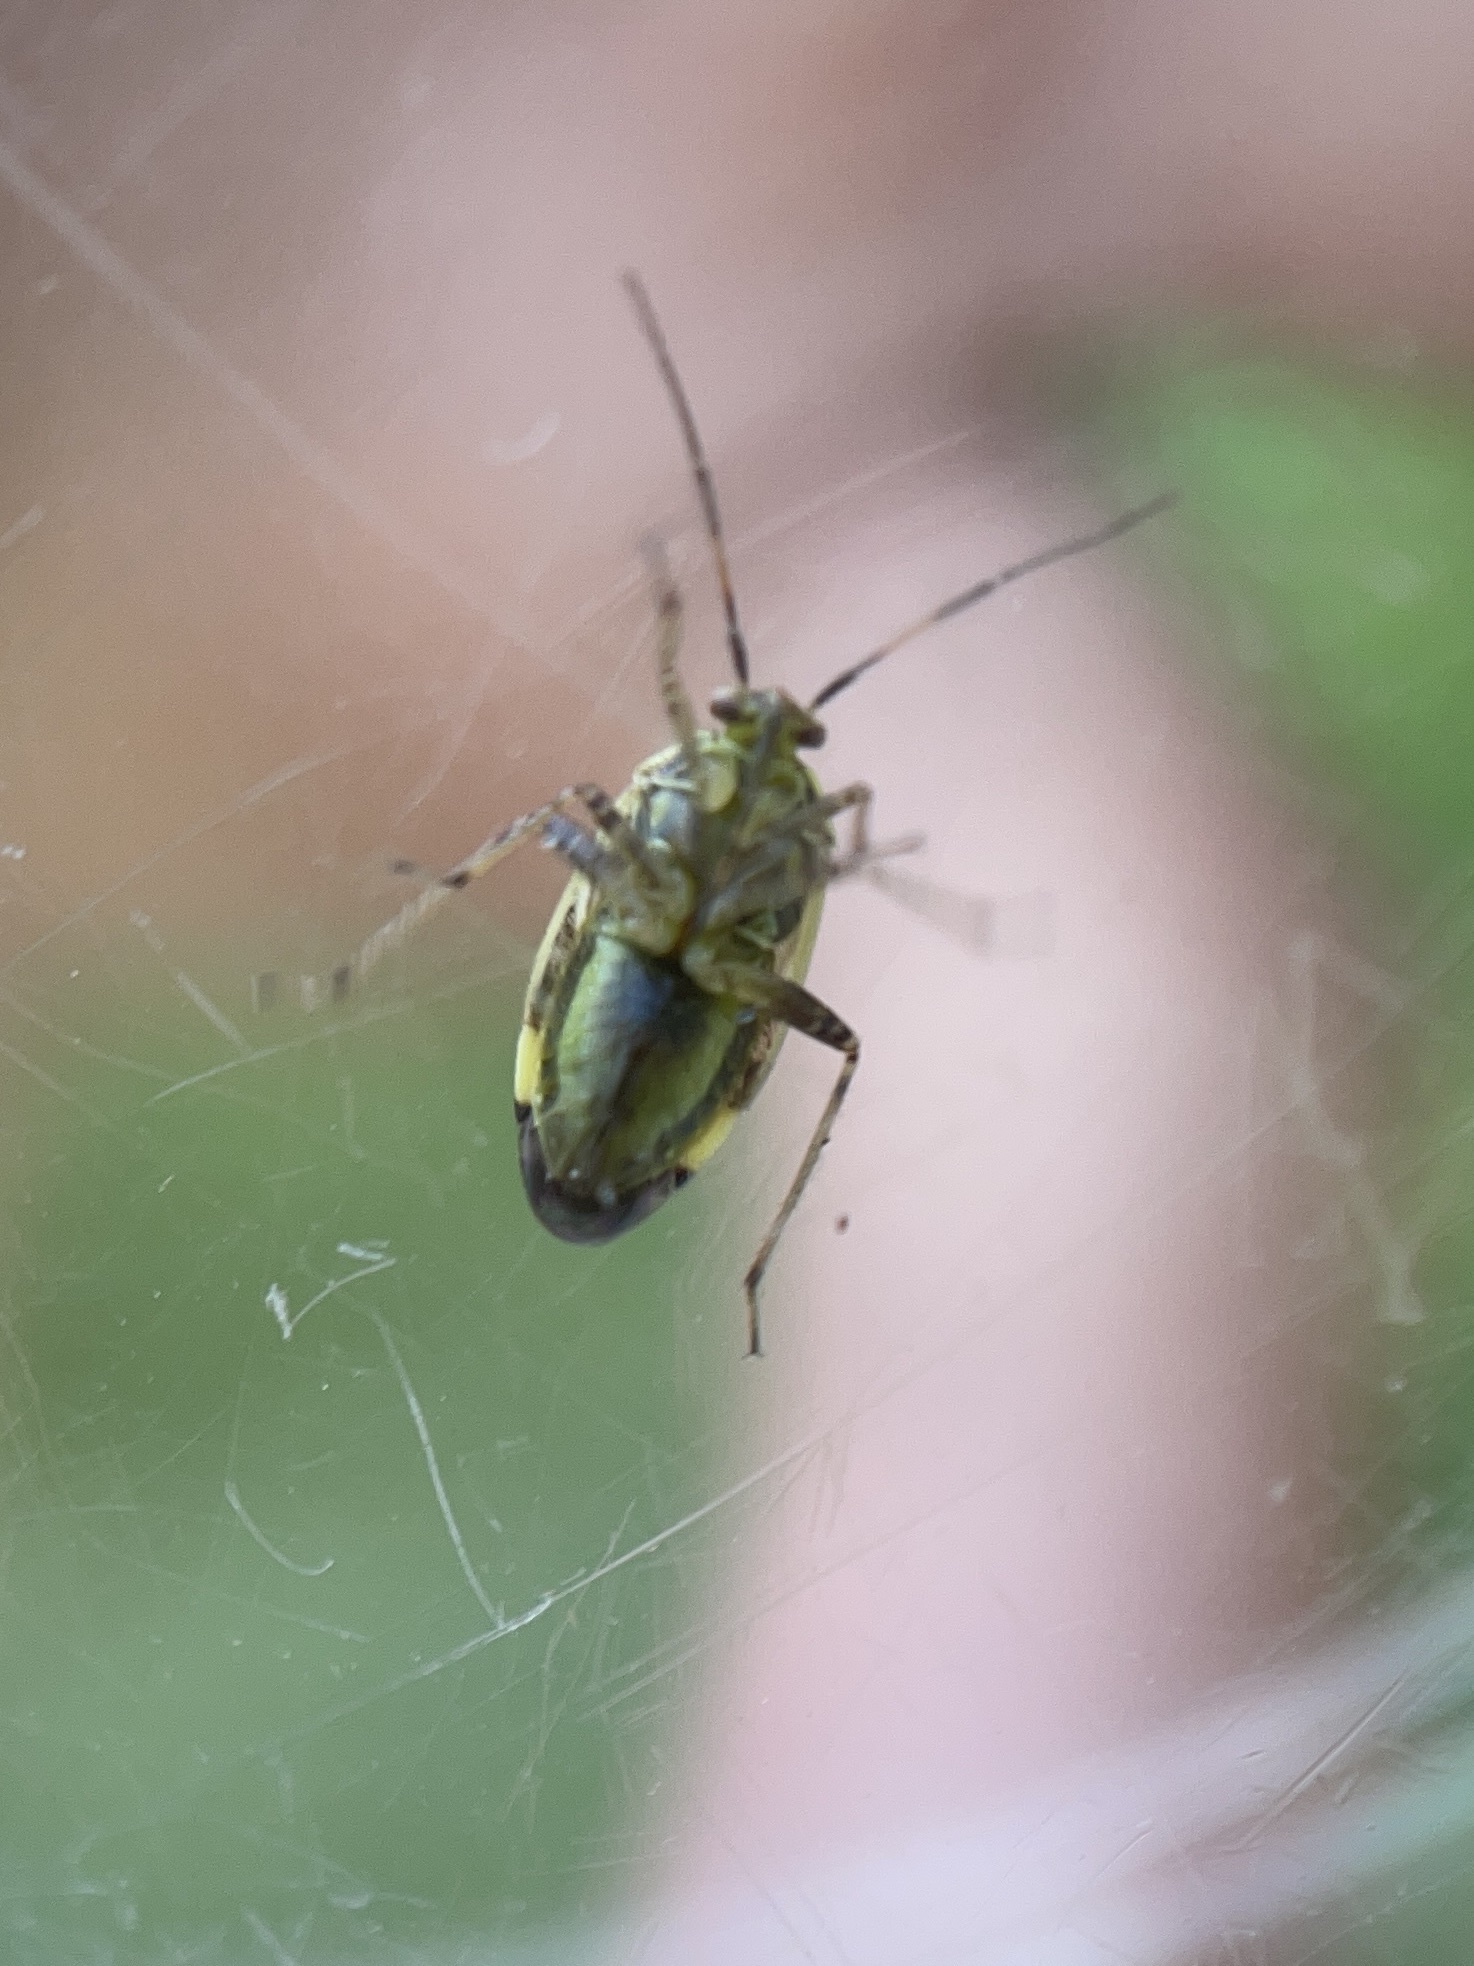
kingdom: Animalia
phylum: Arthropoda
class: Insecta
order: Hemiptera
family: Miridae
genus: Lygus
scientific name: Lygus lineolaris
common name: North american tarnished plant bug
